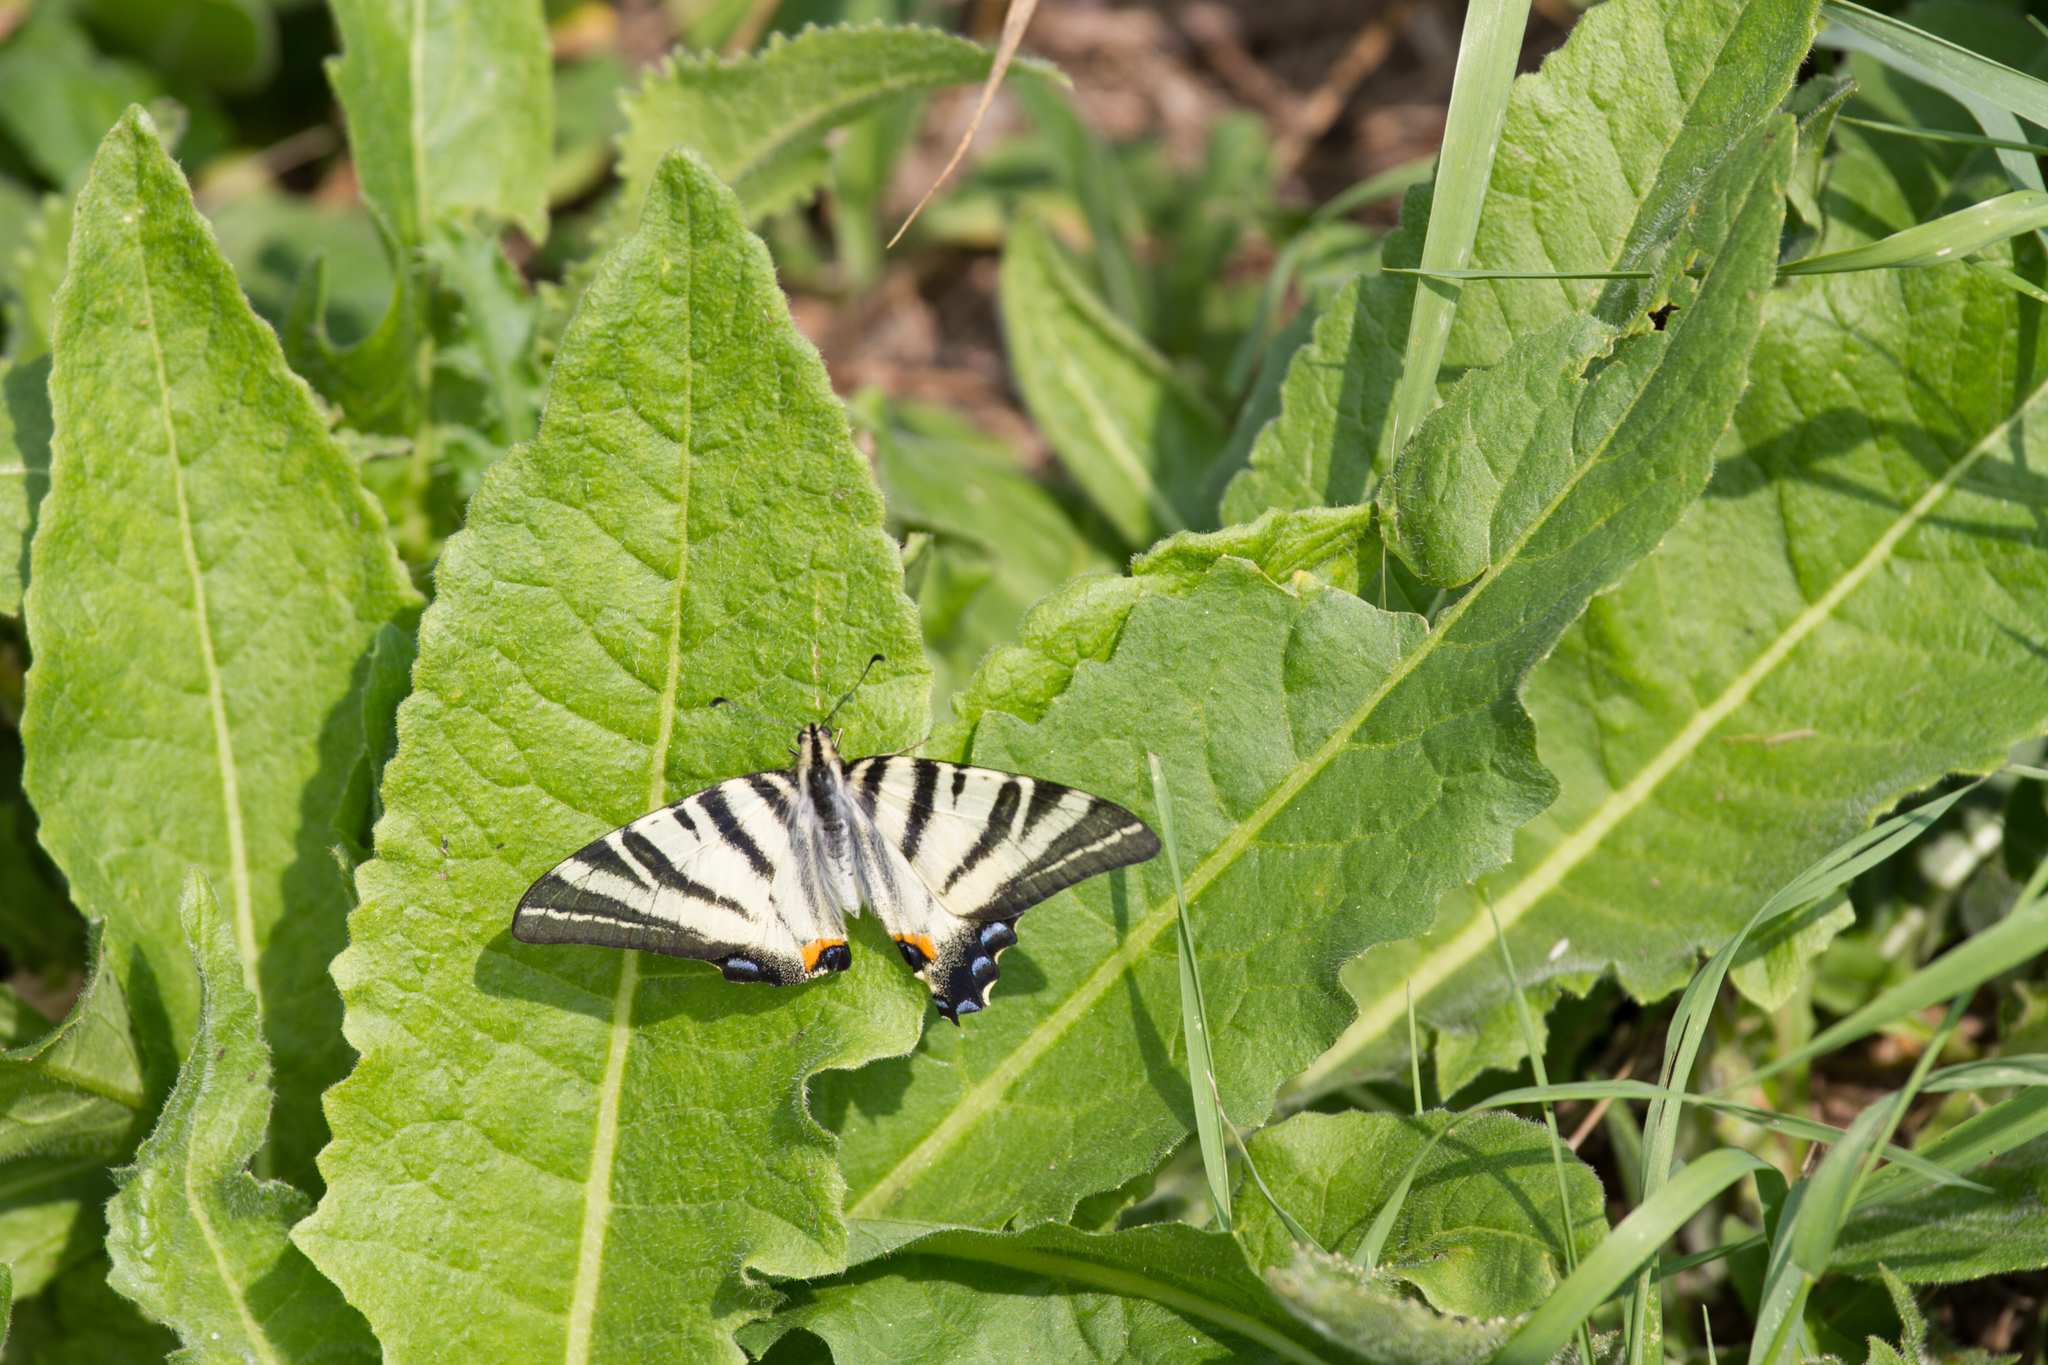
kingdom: Animalia
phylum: Arthropoda
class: Insecta
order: Lepidoptera
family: Papilionidae
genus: Iphiclides
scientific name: Iphiclides podalirius
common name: Scarce swallowtail
